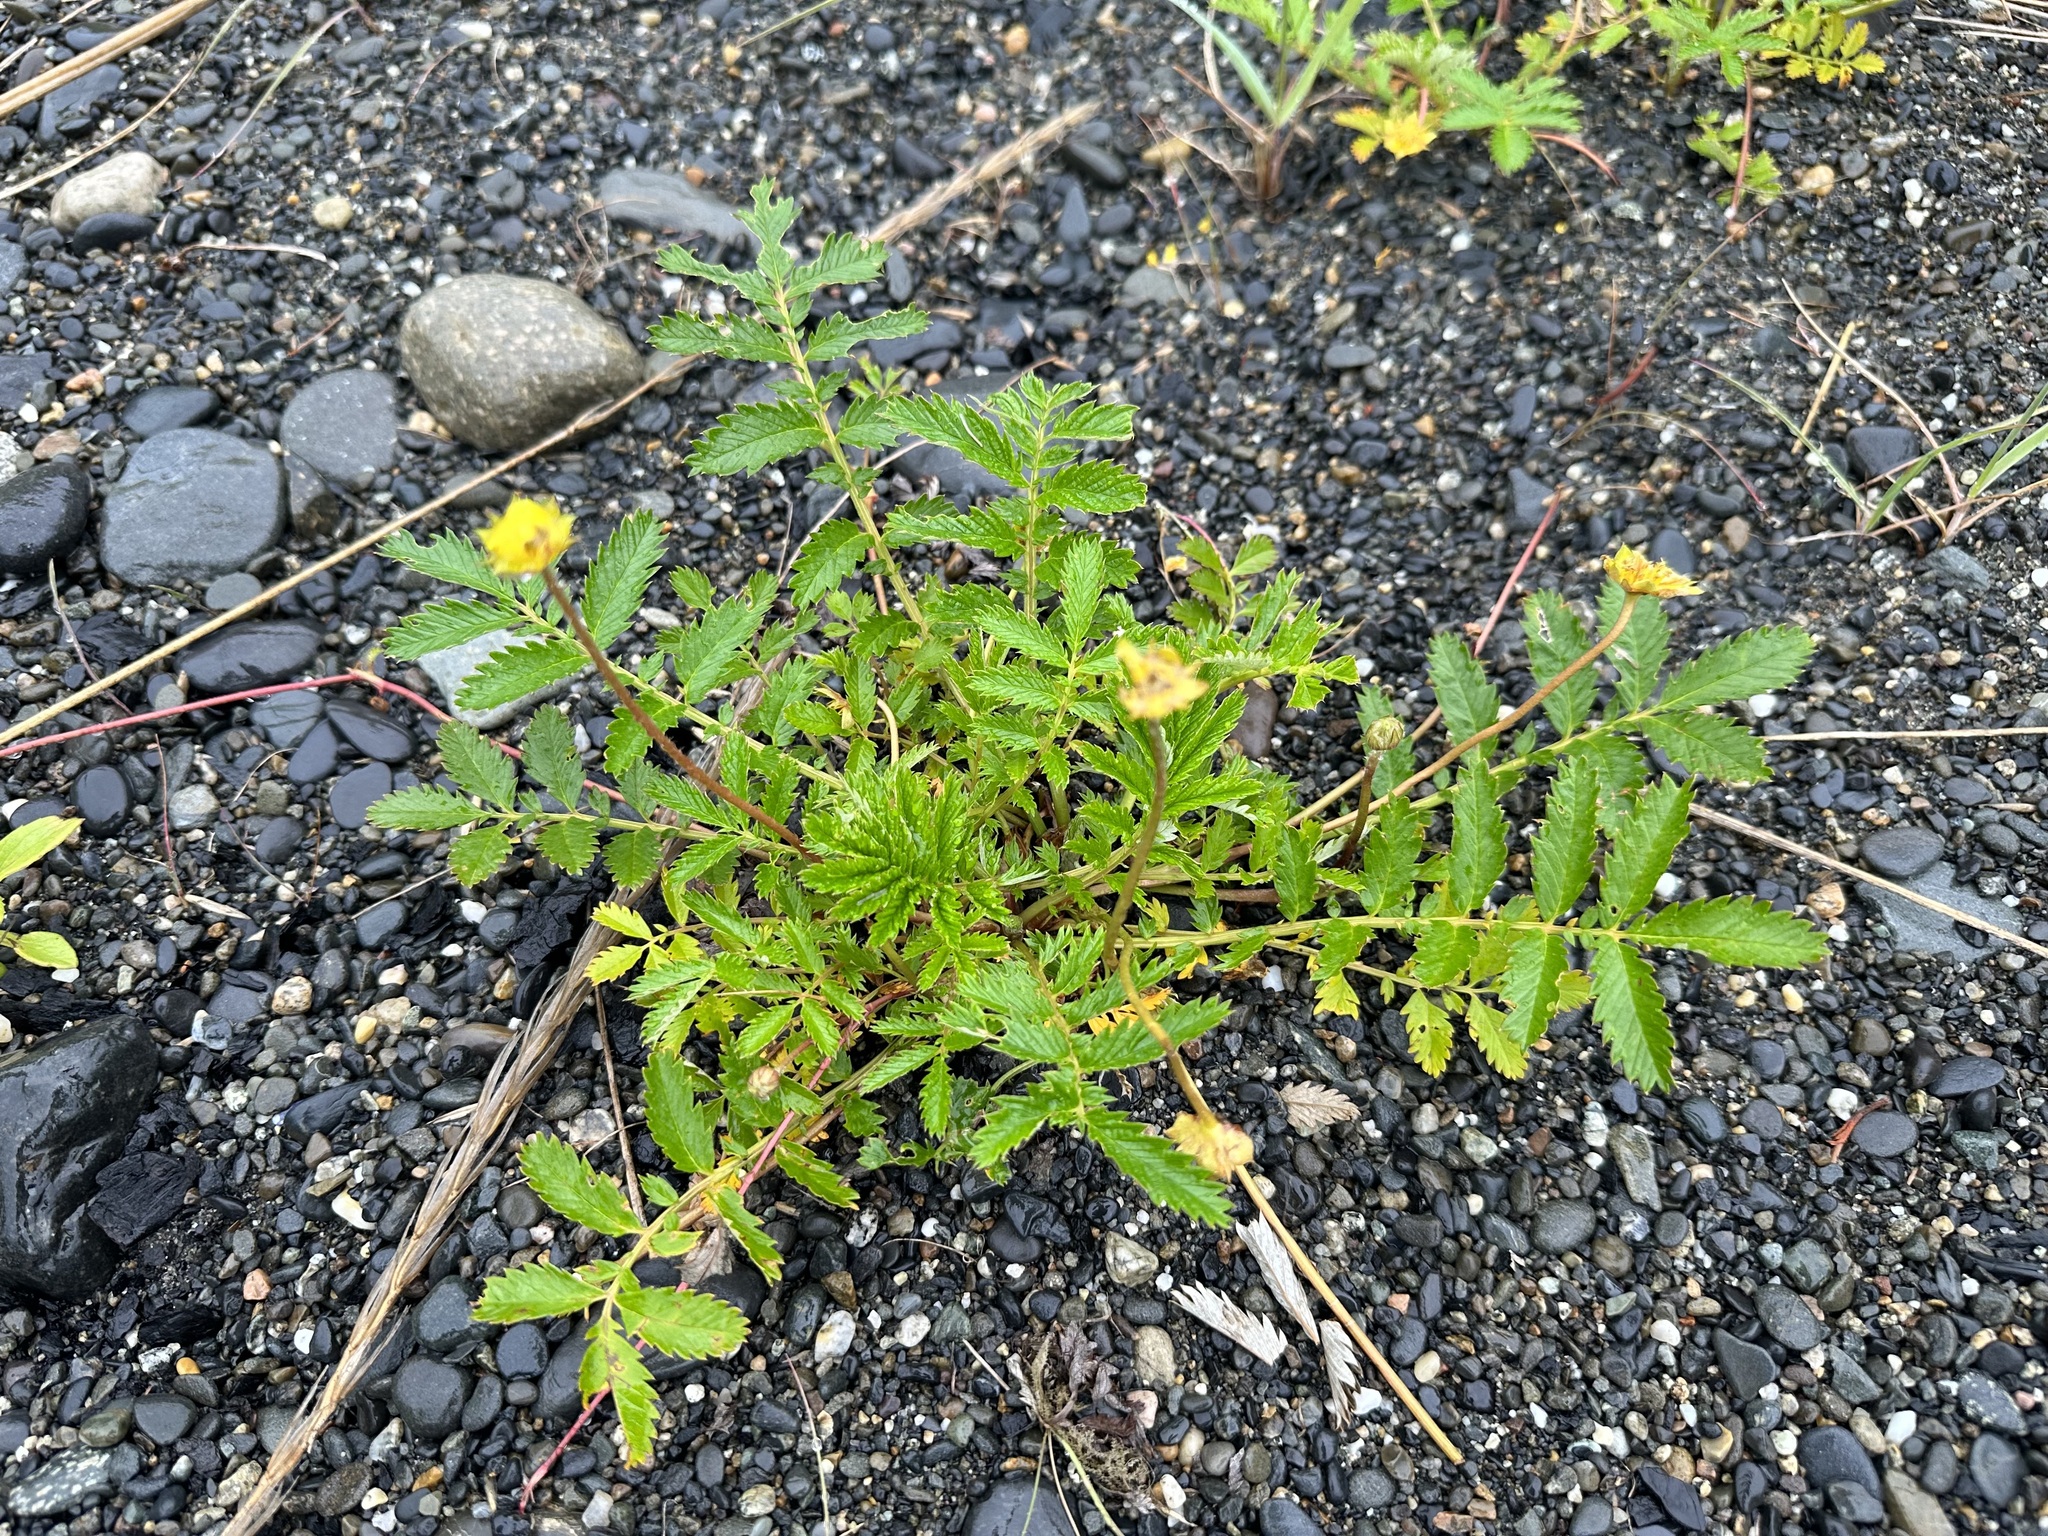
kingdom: Plantae
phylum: Tracheophyta
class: Magnoliopsida
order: Rosales
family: Rosaceae
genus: Argentina
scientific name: Argentina anserina
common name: Common silverweed
